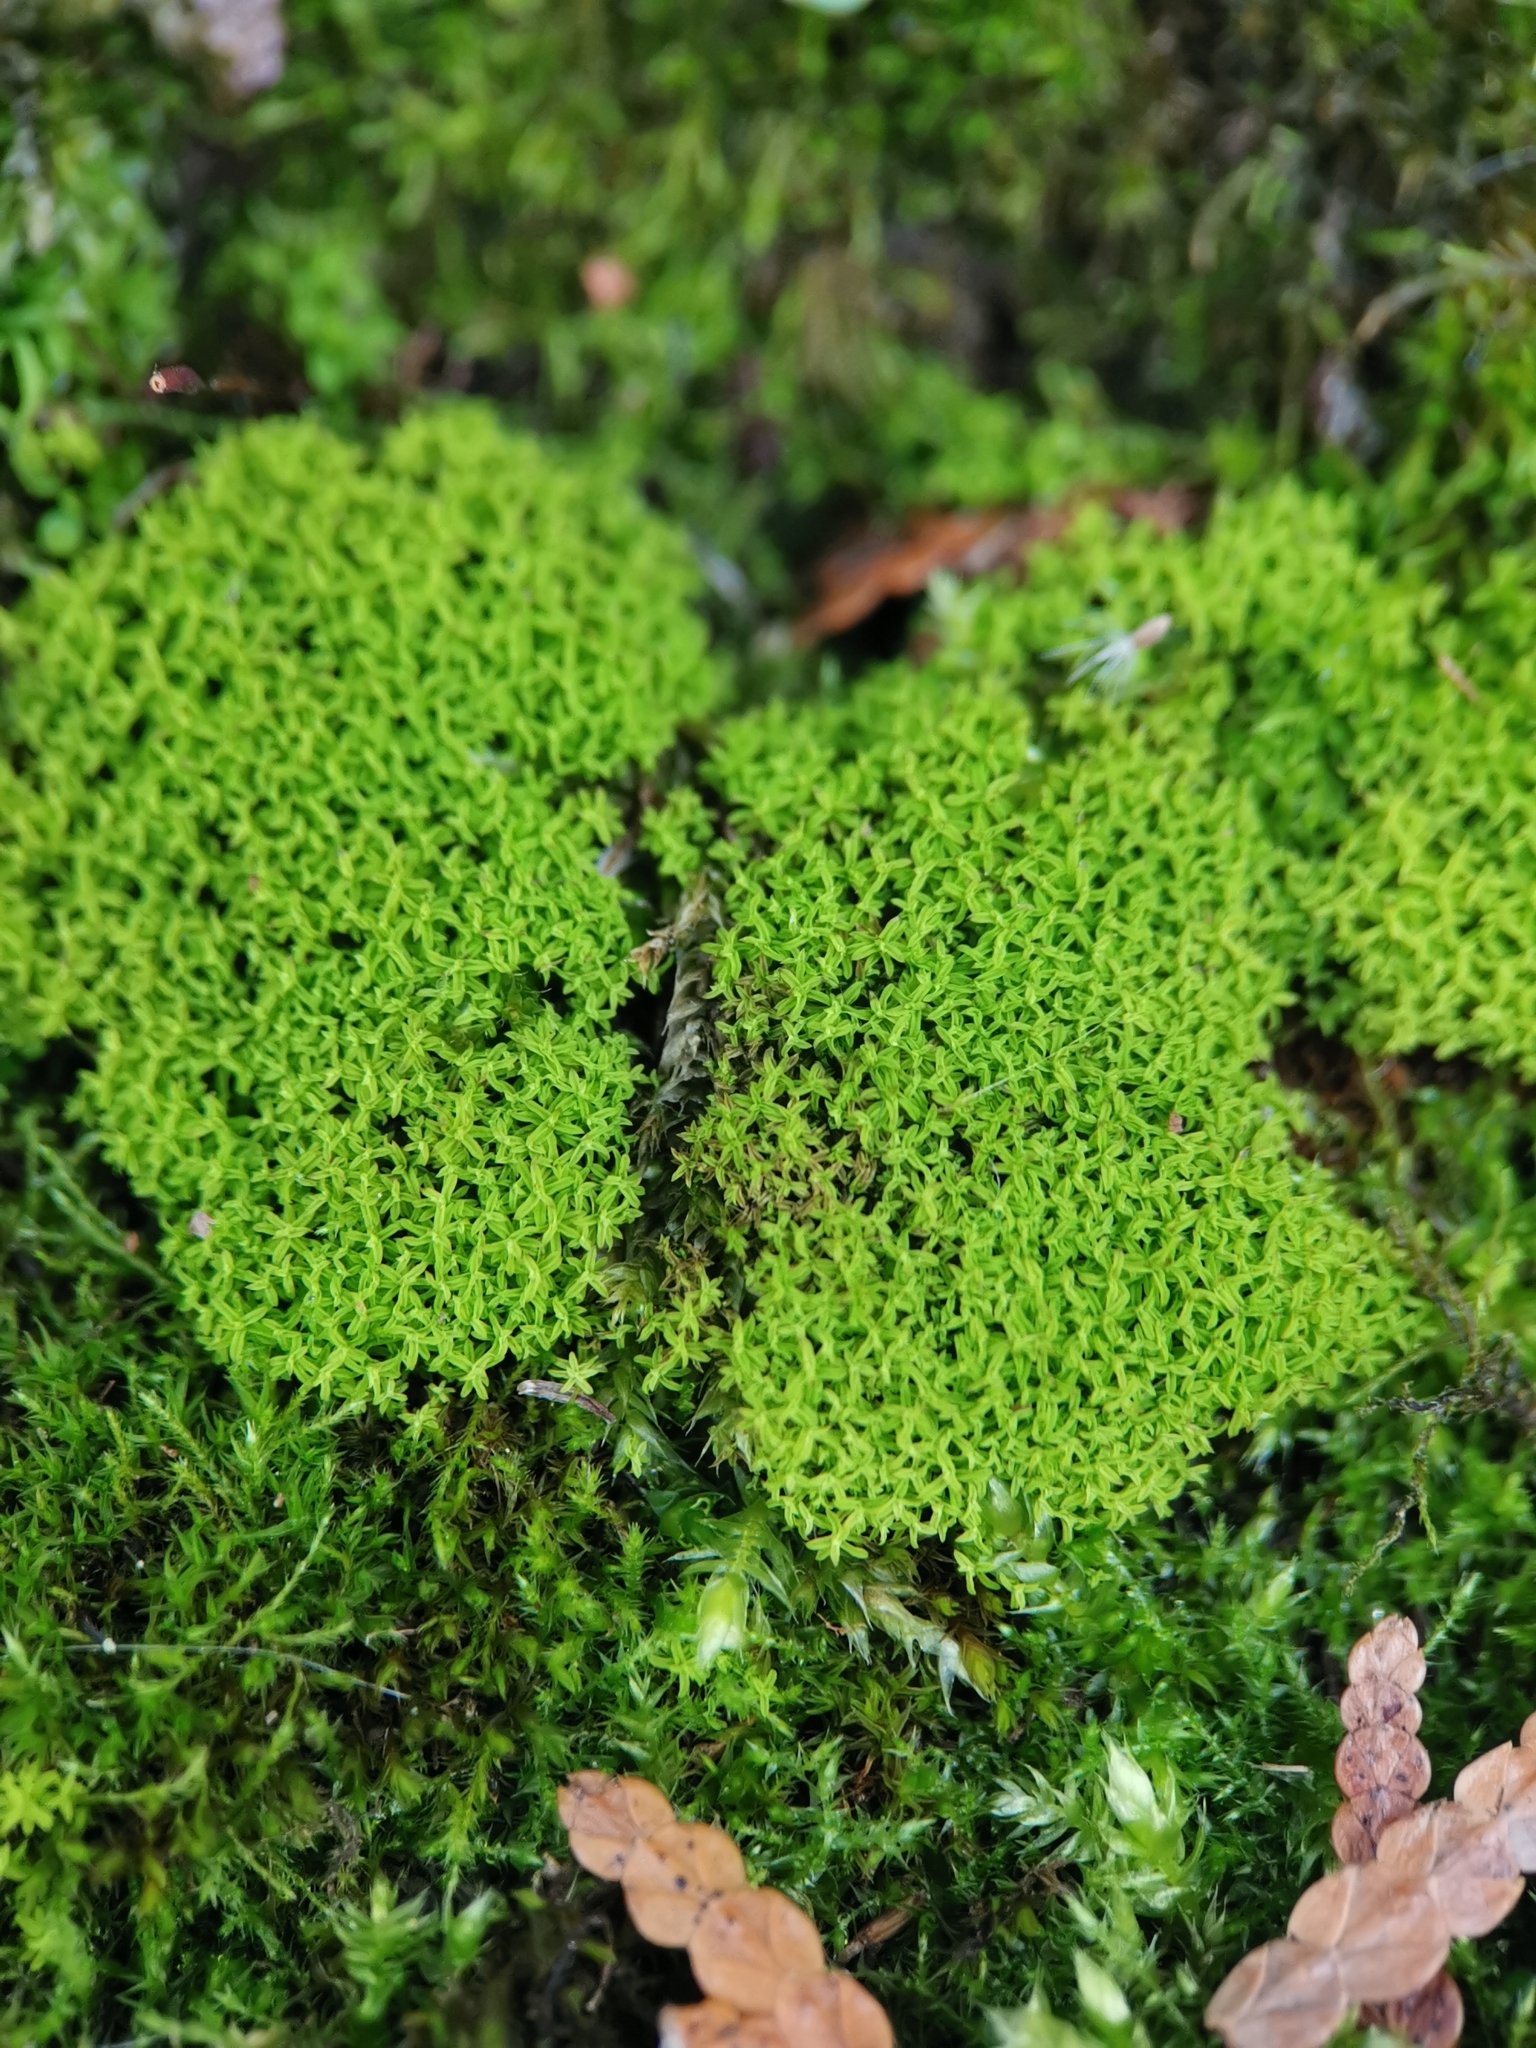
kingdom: Plantae
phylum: Bryophyta
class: Bryopsida
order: Pottiales
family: Pottiaceae
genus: Streblotrichum
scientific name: Streblotrichum convolutum
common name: Lesser bird's-claw beard-moss
